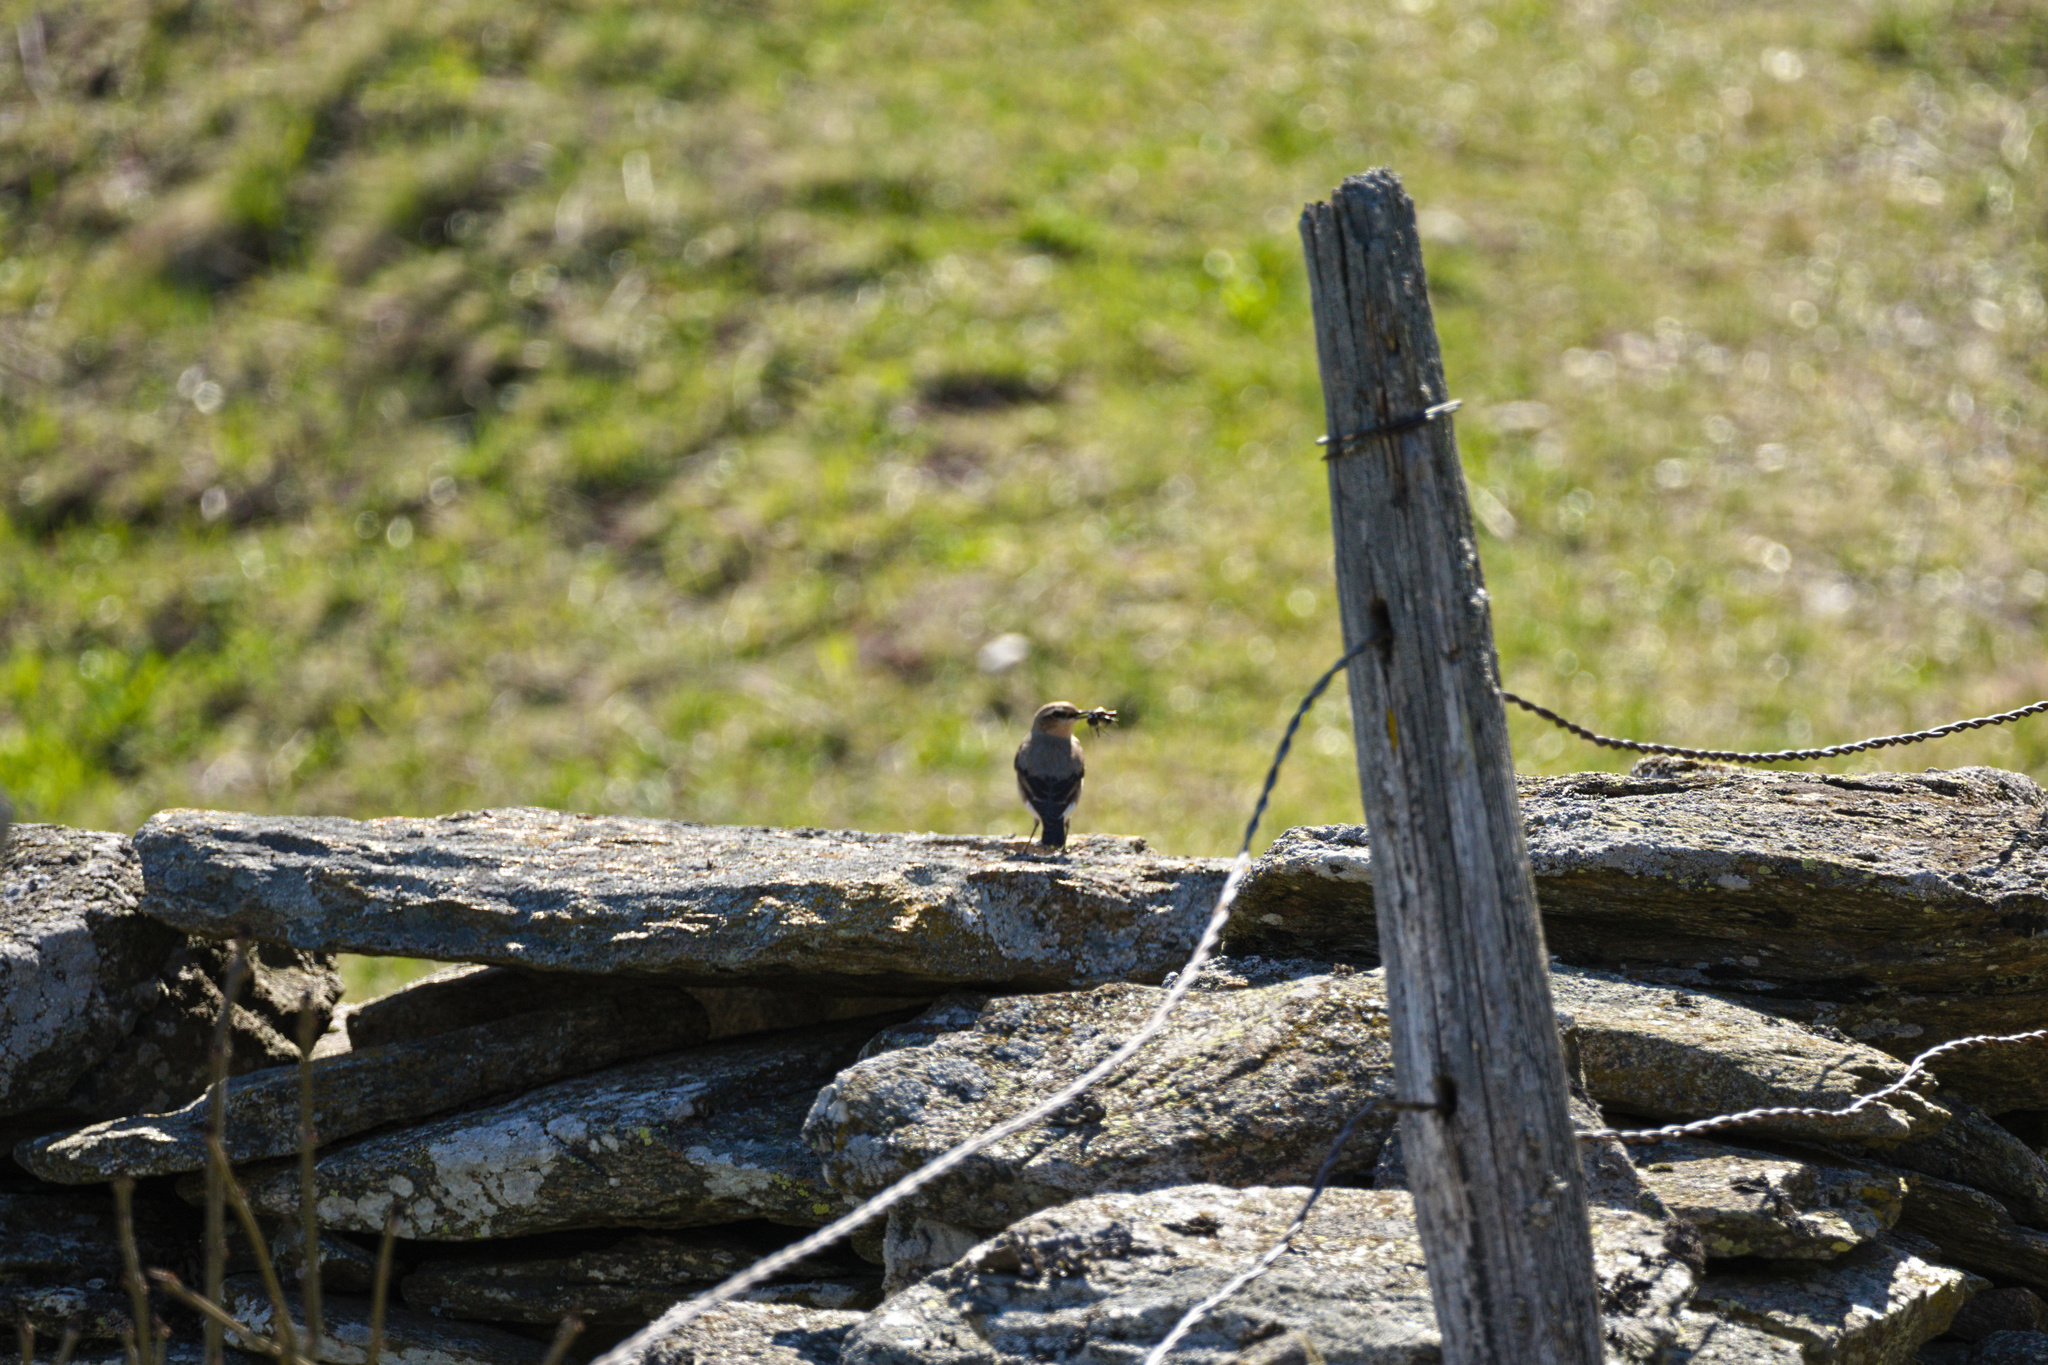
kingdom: Animalia
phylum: Chordata
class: Aves
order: Passeriformes
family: Muscicapidae
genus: Oenanthe
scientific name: Oenanthe oenanthe
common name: Northern wheatear
